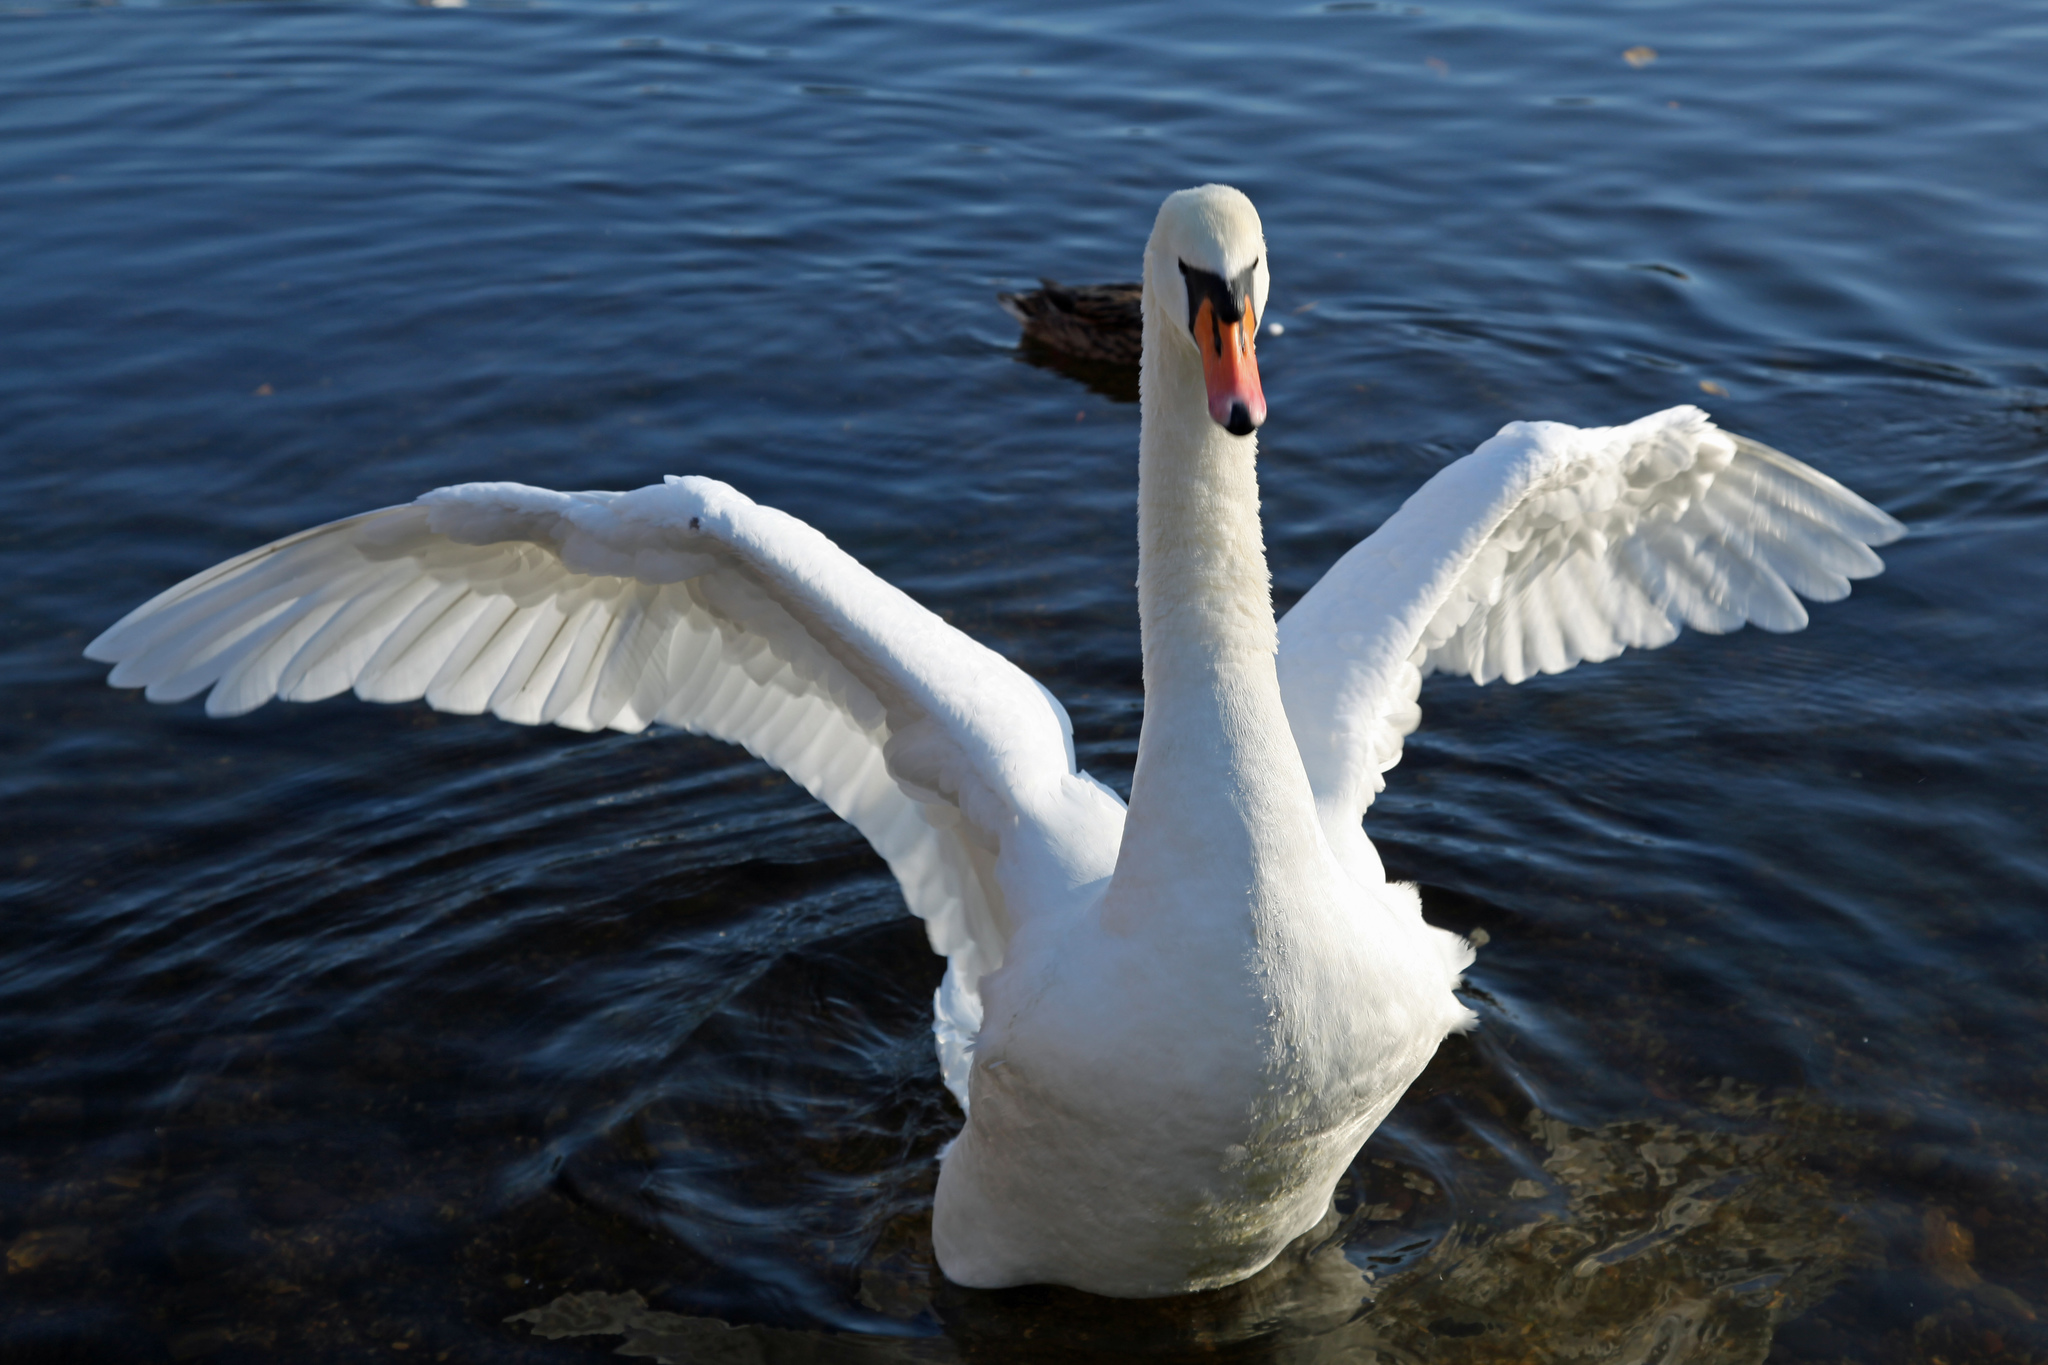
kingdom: Animalia
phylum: Chordata
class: Aves
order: Anseriformes
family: Anatidae
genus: Cygnus
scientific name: Cygnus olor
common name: Mute swan
